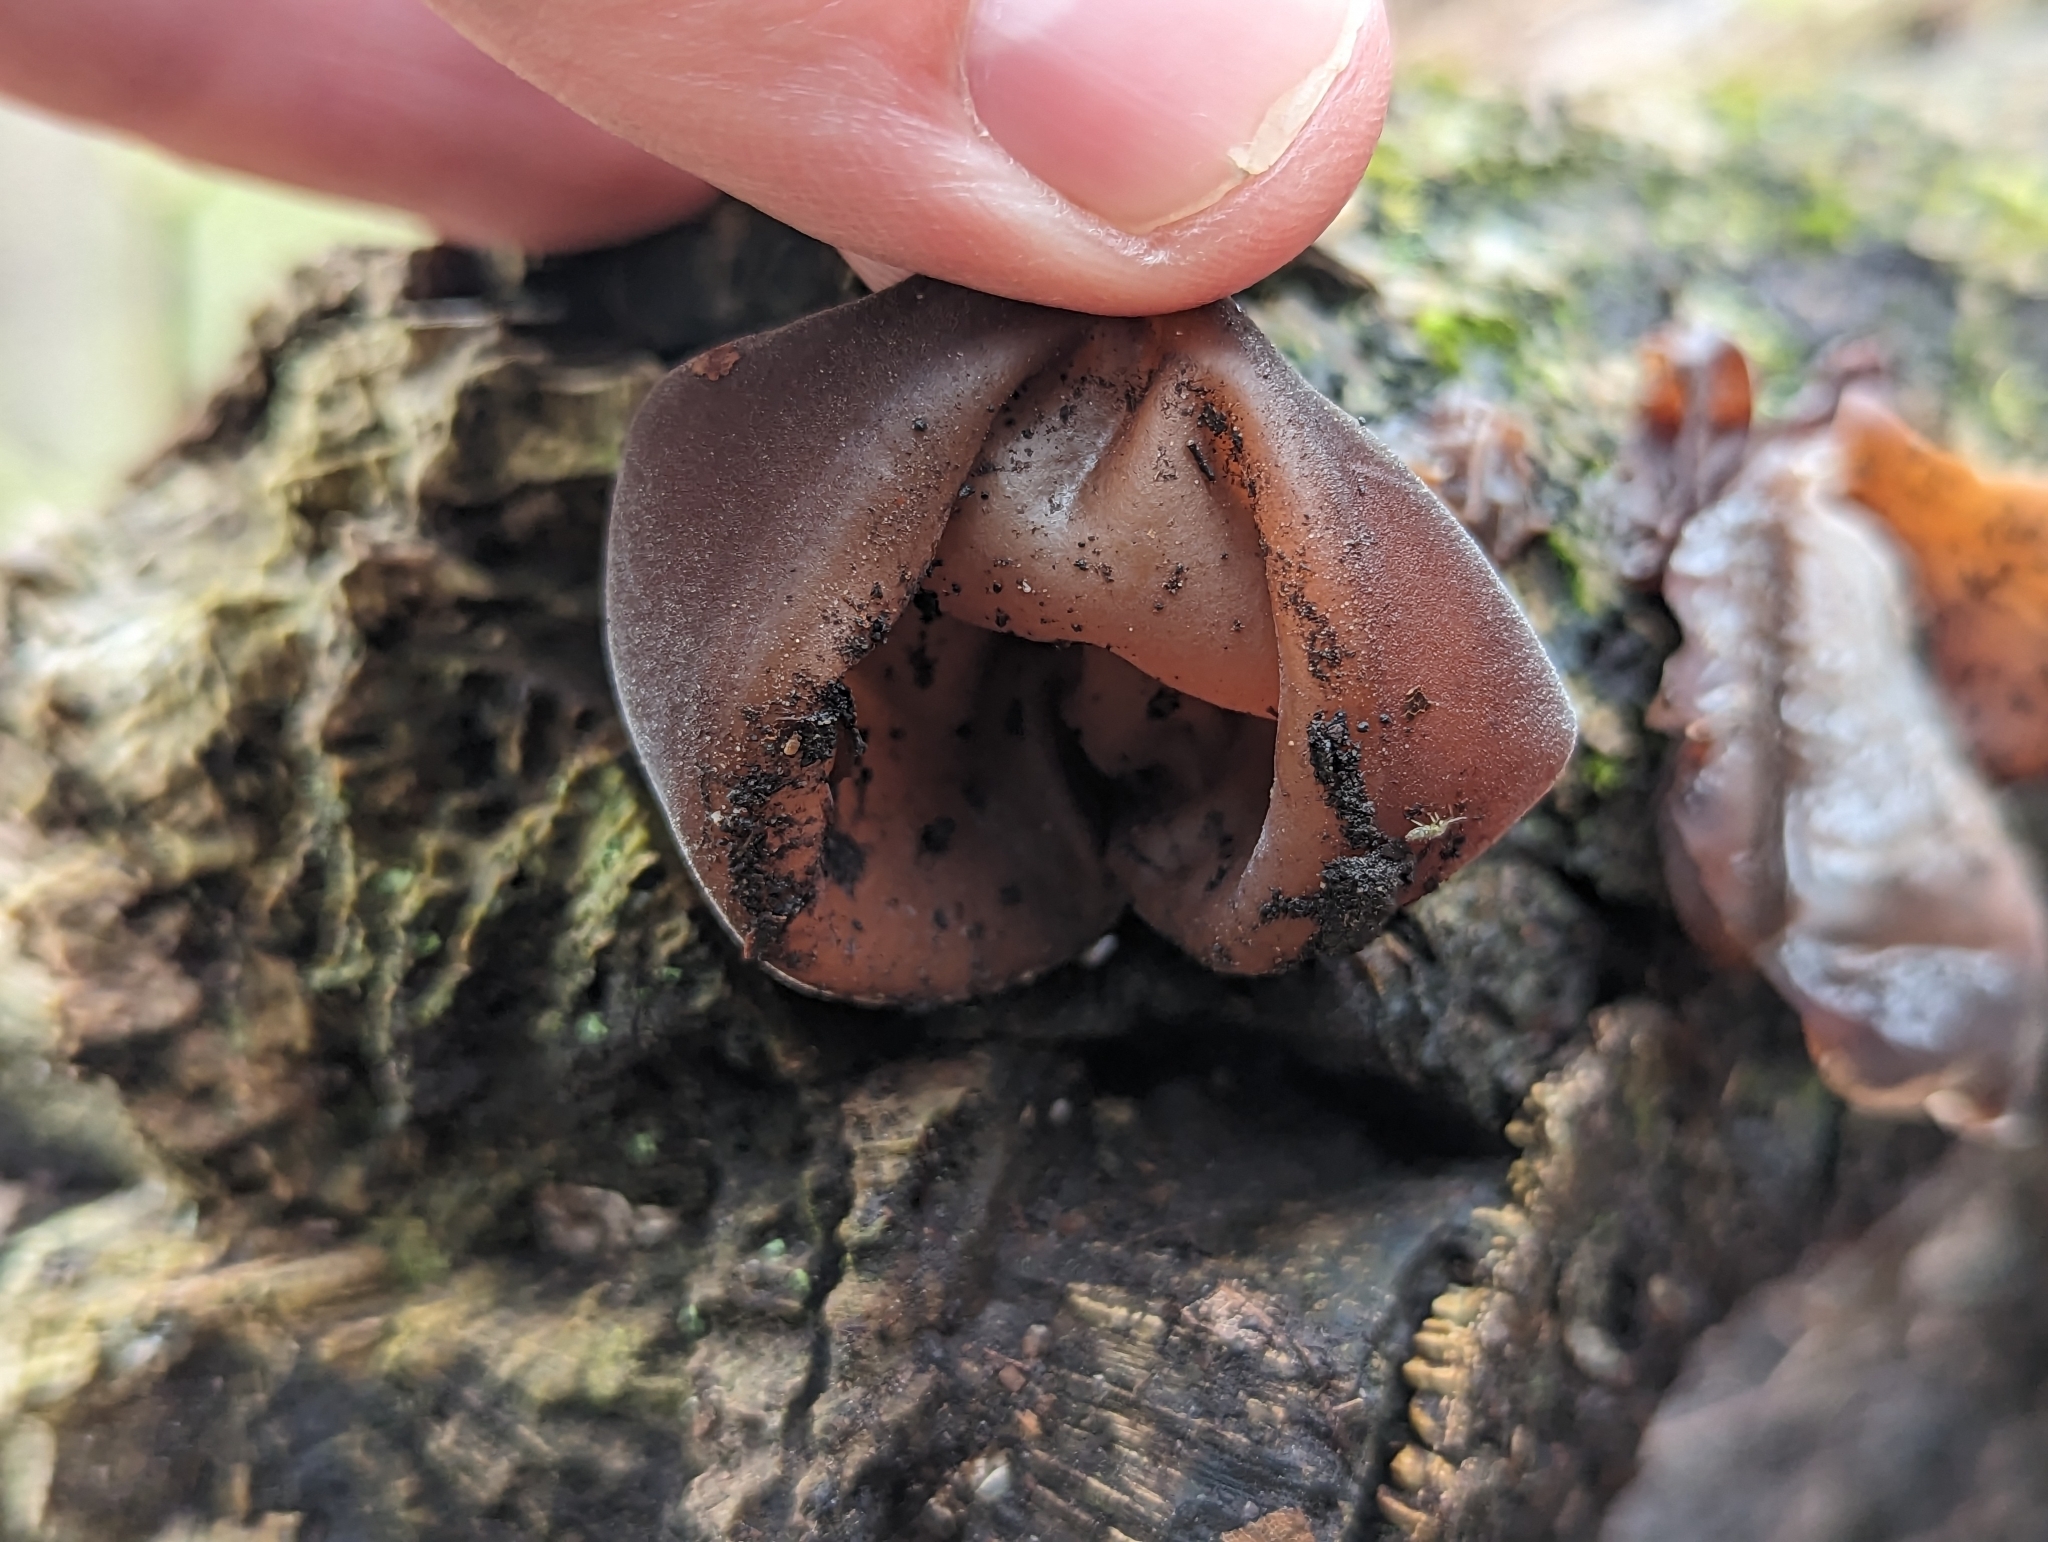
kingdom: Fungi
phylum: Basidiomycota
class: Agaricomycetes
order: Auriculariales
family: Auriculariaceae
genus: Auricularia
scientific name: Auricularia auricula-judae
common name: Jelly ear
